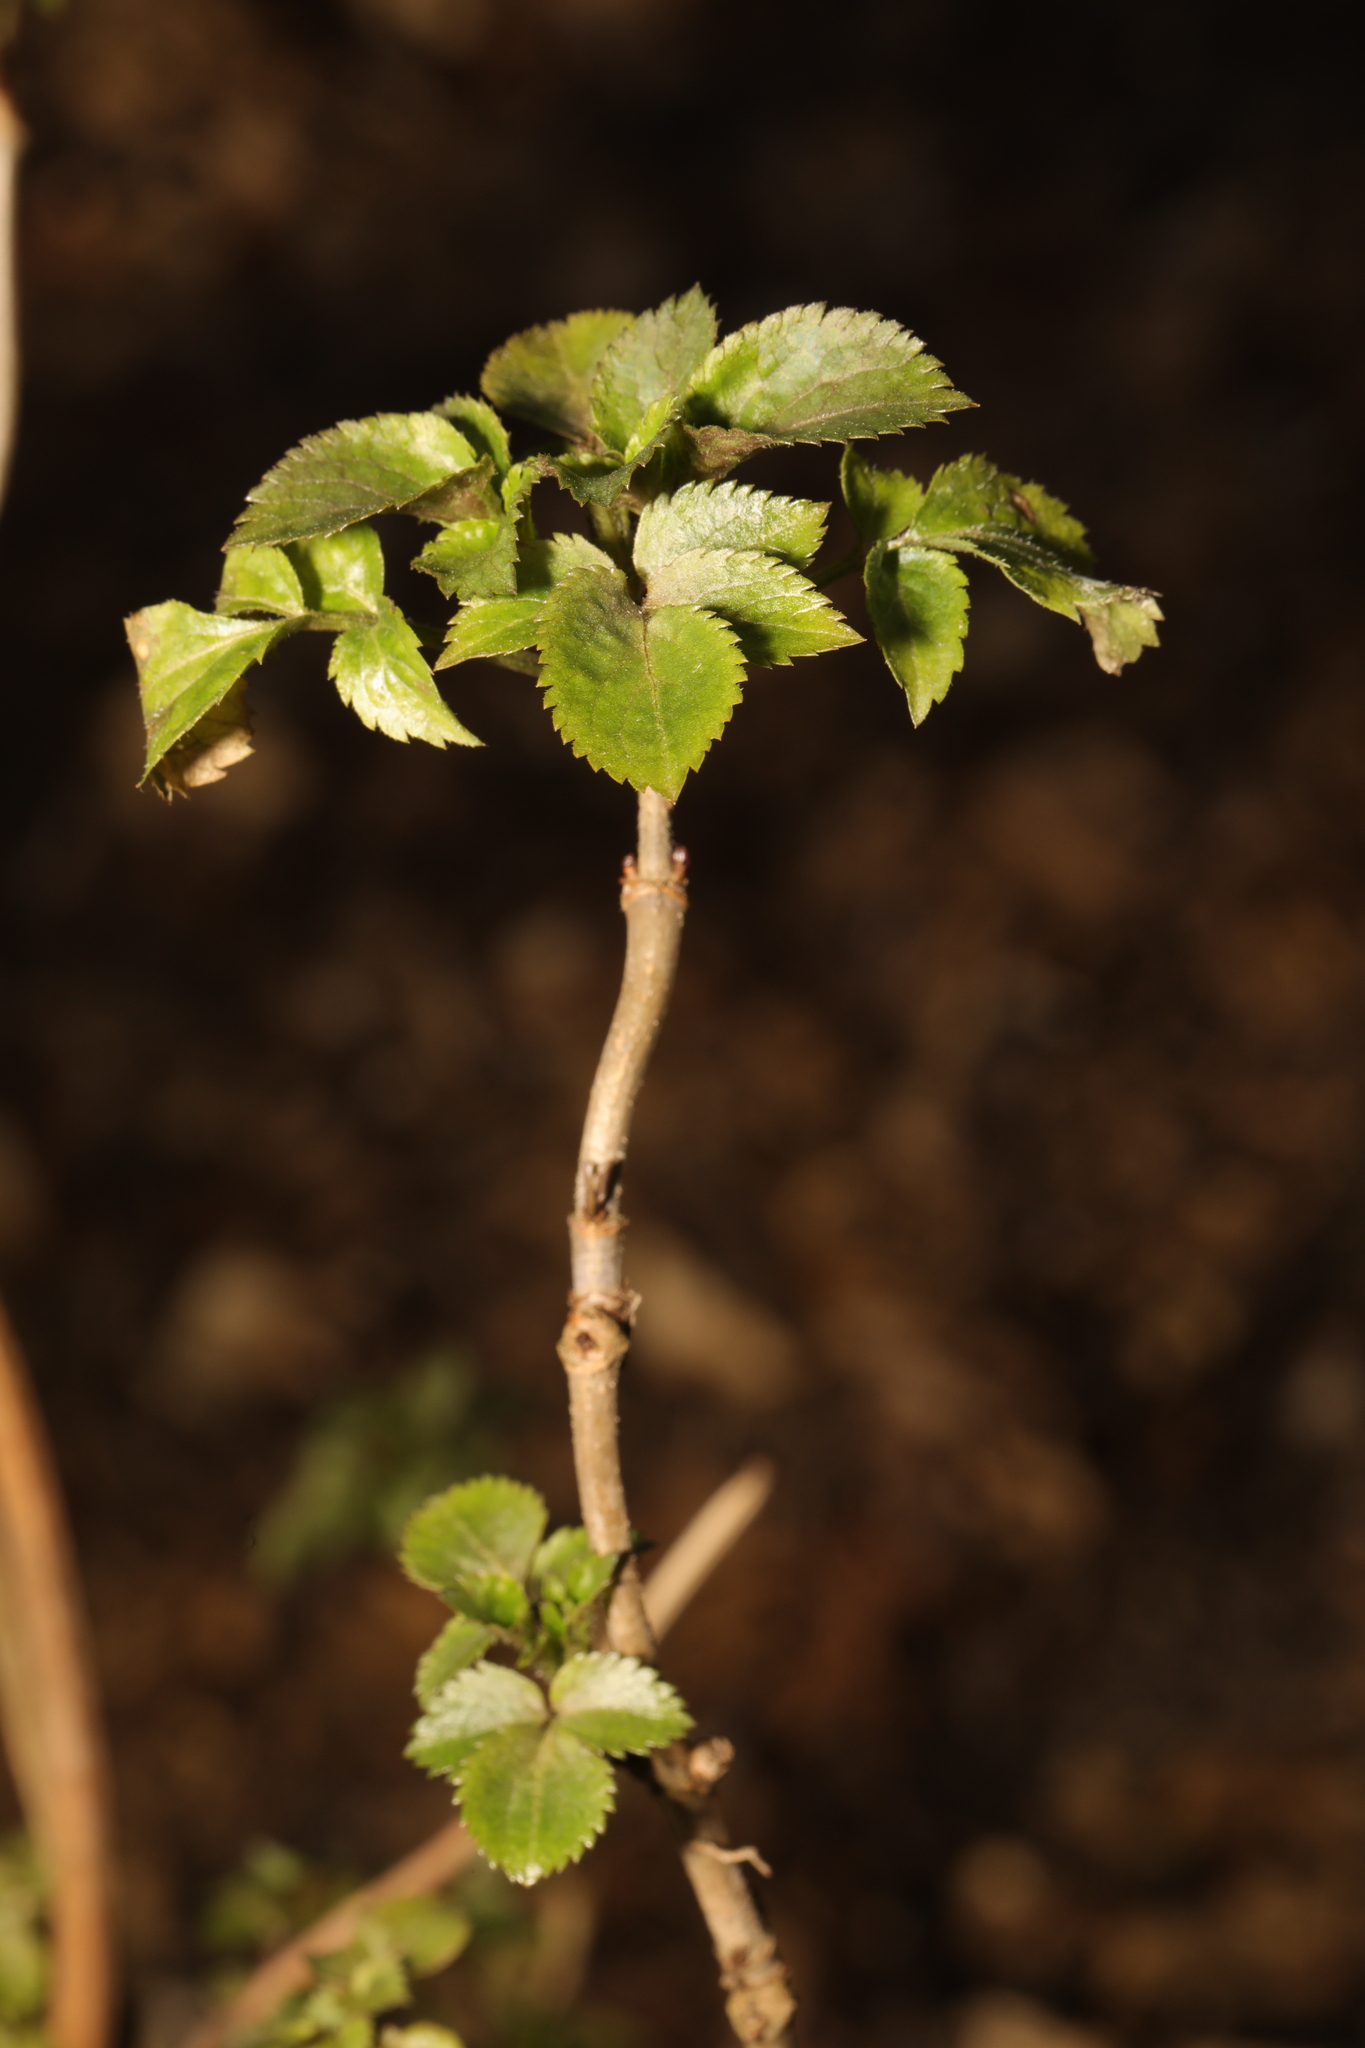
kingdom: Plantae
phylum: Tracheophyta
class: Magnoliopsida
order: Dipsacales
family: Viburnaceae
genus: Sambucus
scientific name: Sambucus nigra
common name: Elder
